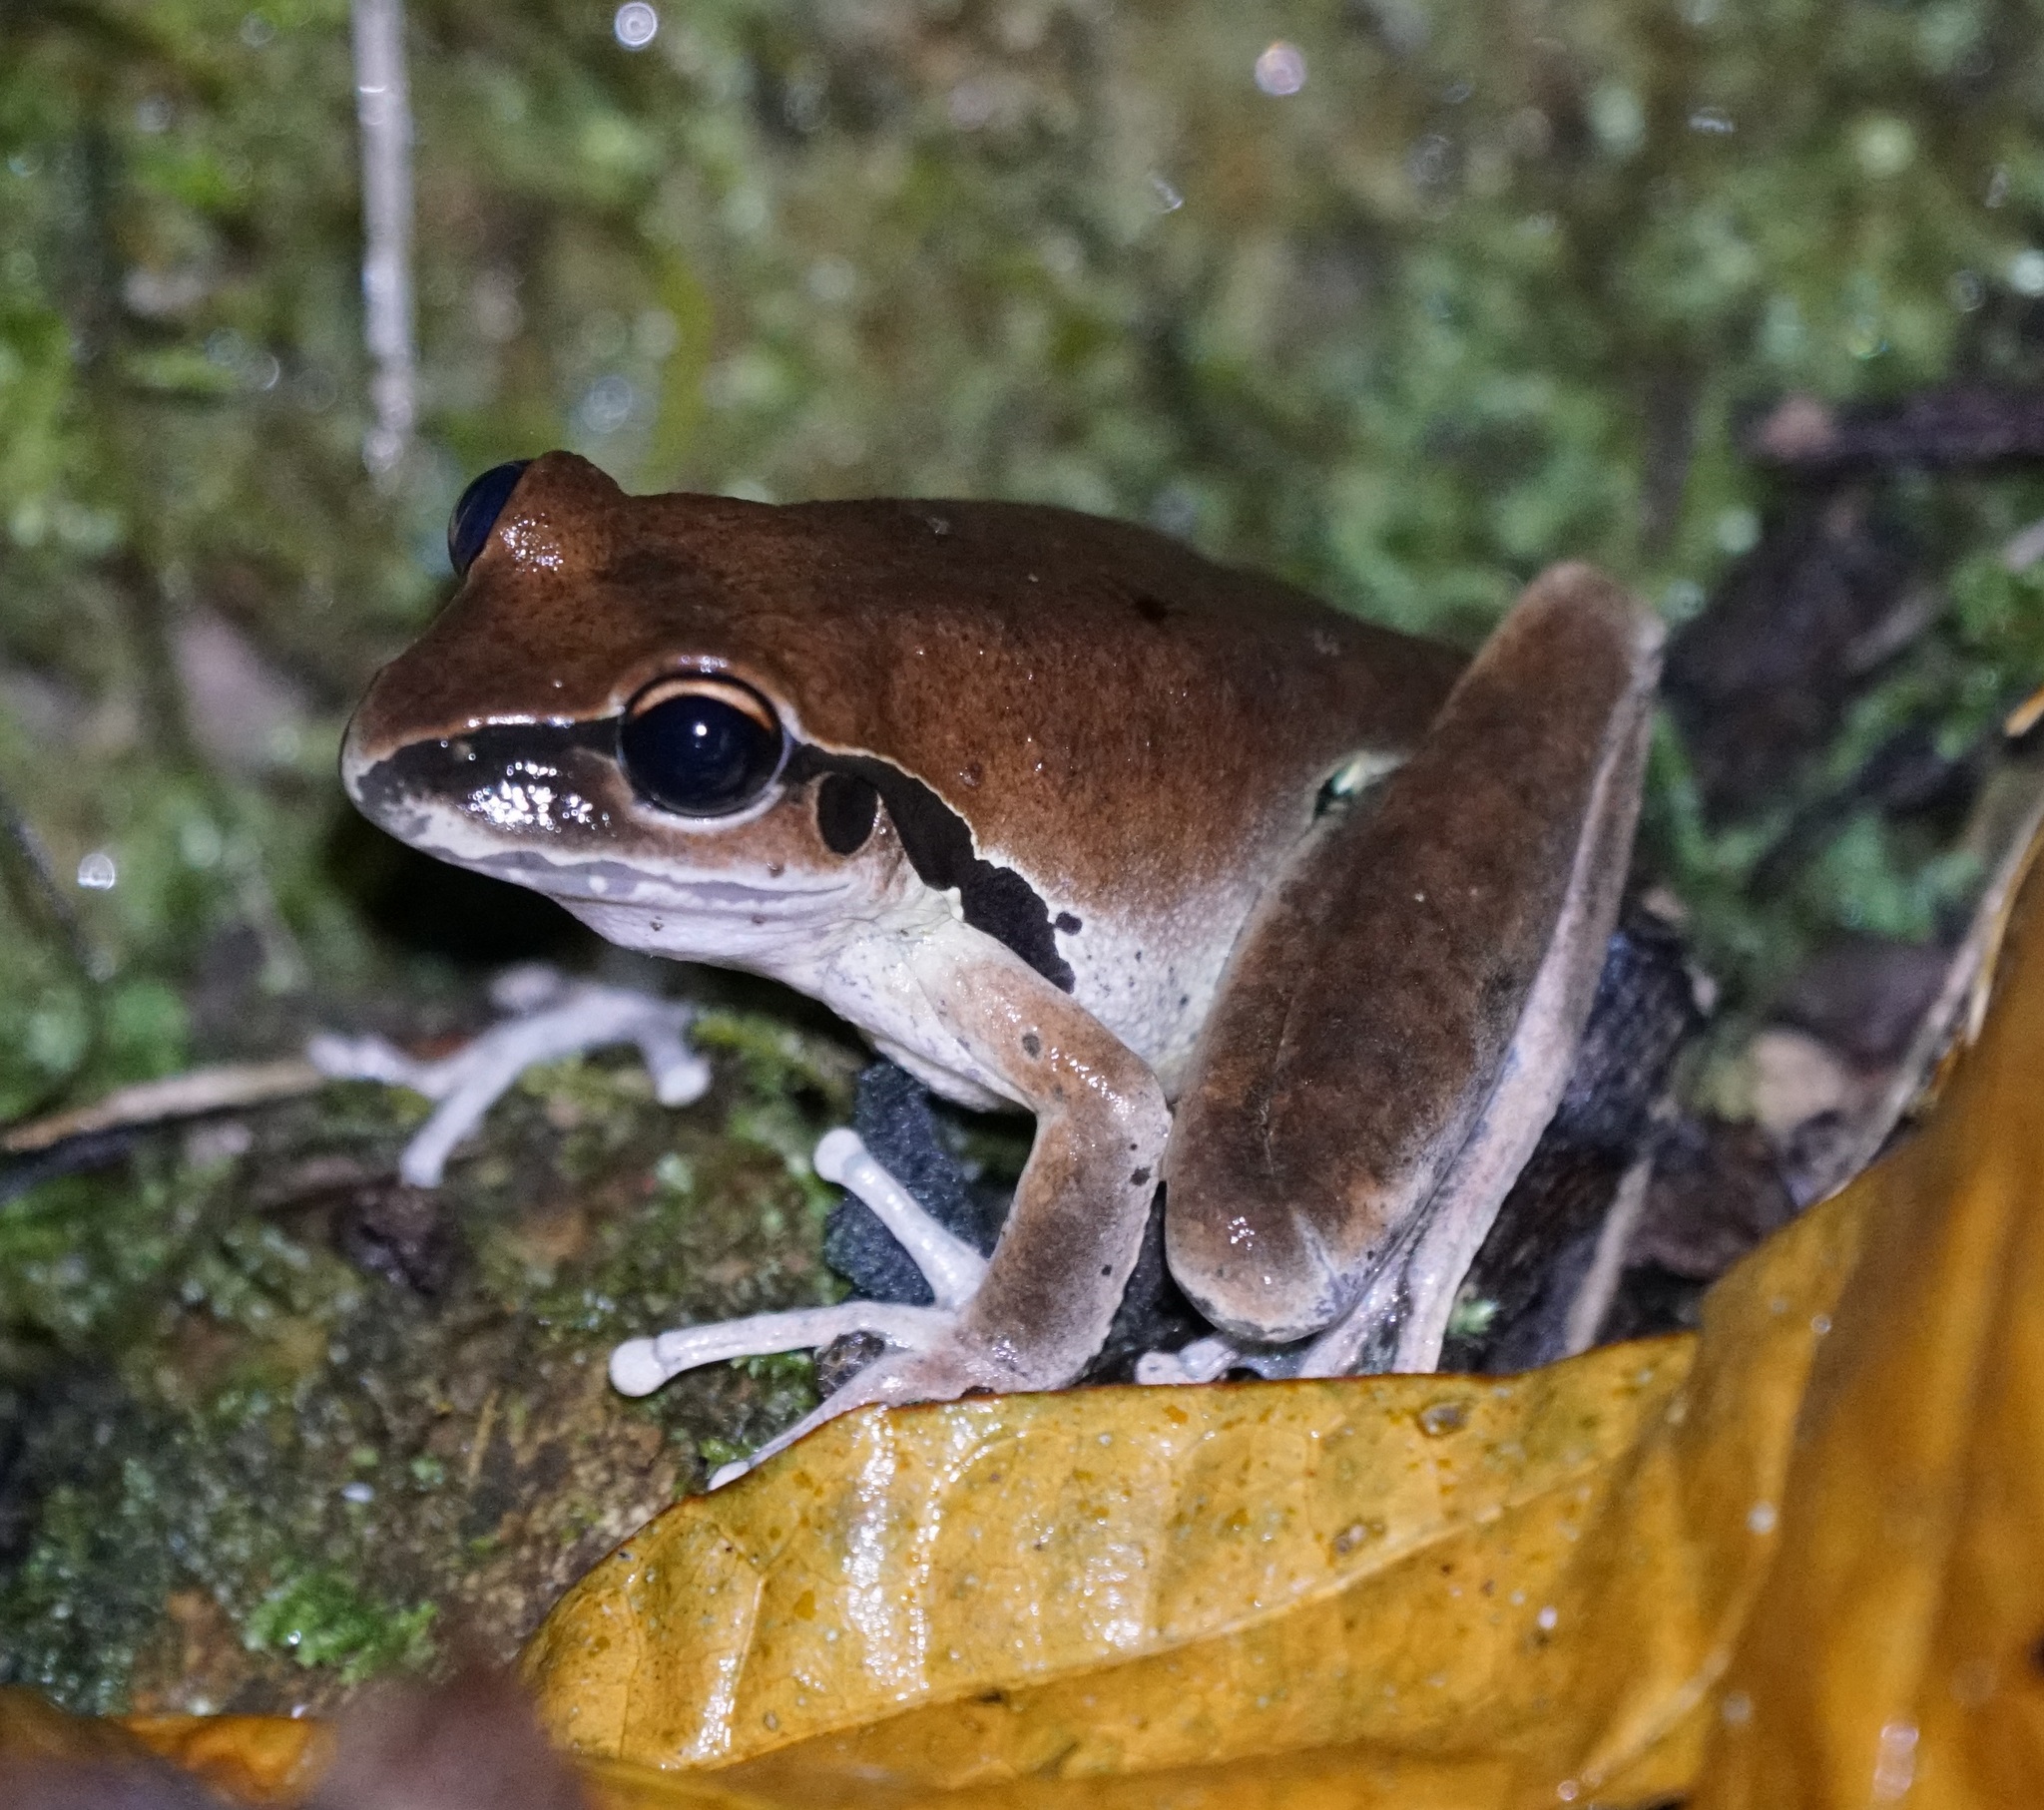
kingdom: Animalia
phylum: Chordata
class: Amphibia
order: Anura
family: Pelodryadidae
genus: Ranoidea
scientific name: Ranoidea wilcoxii
